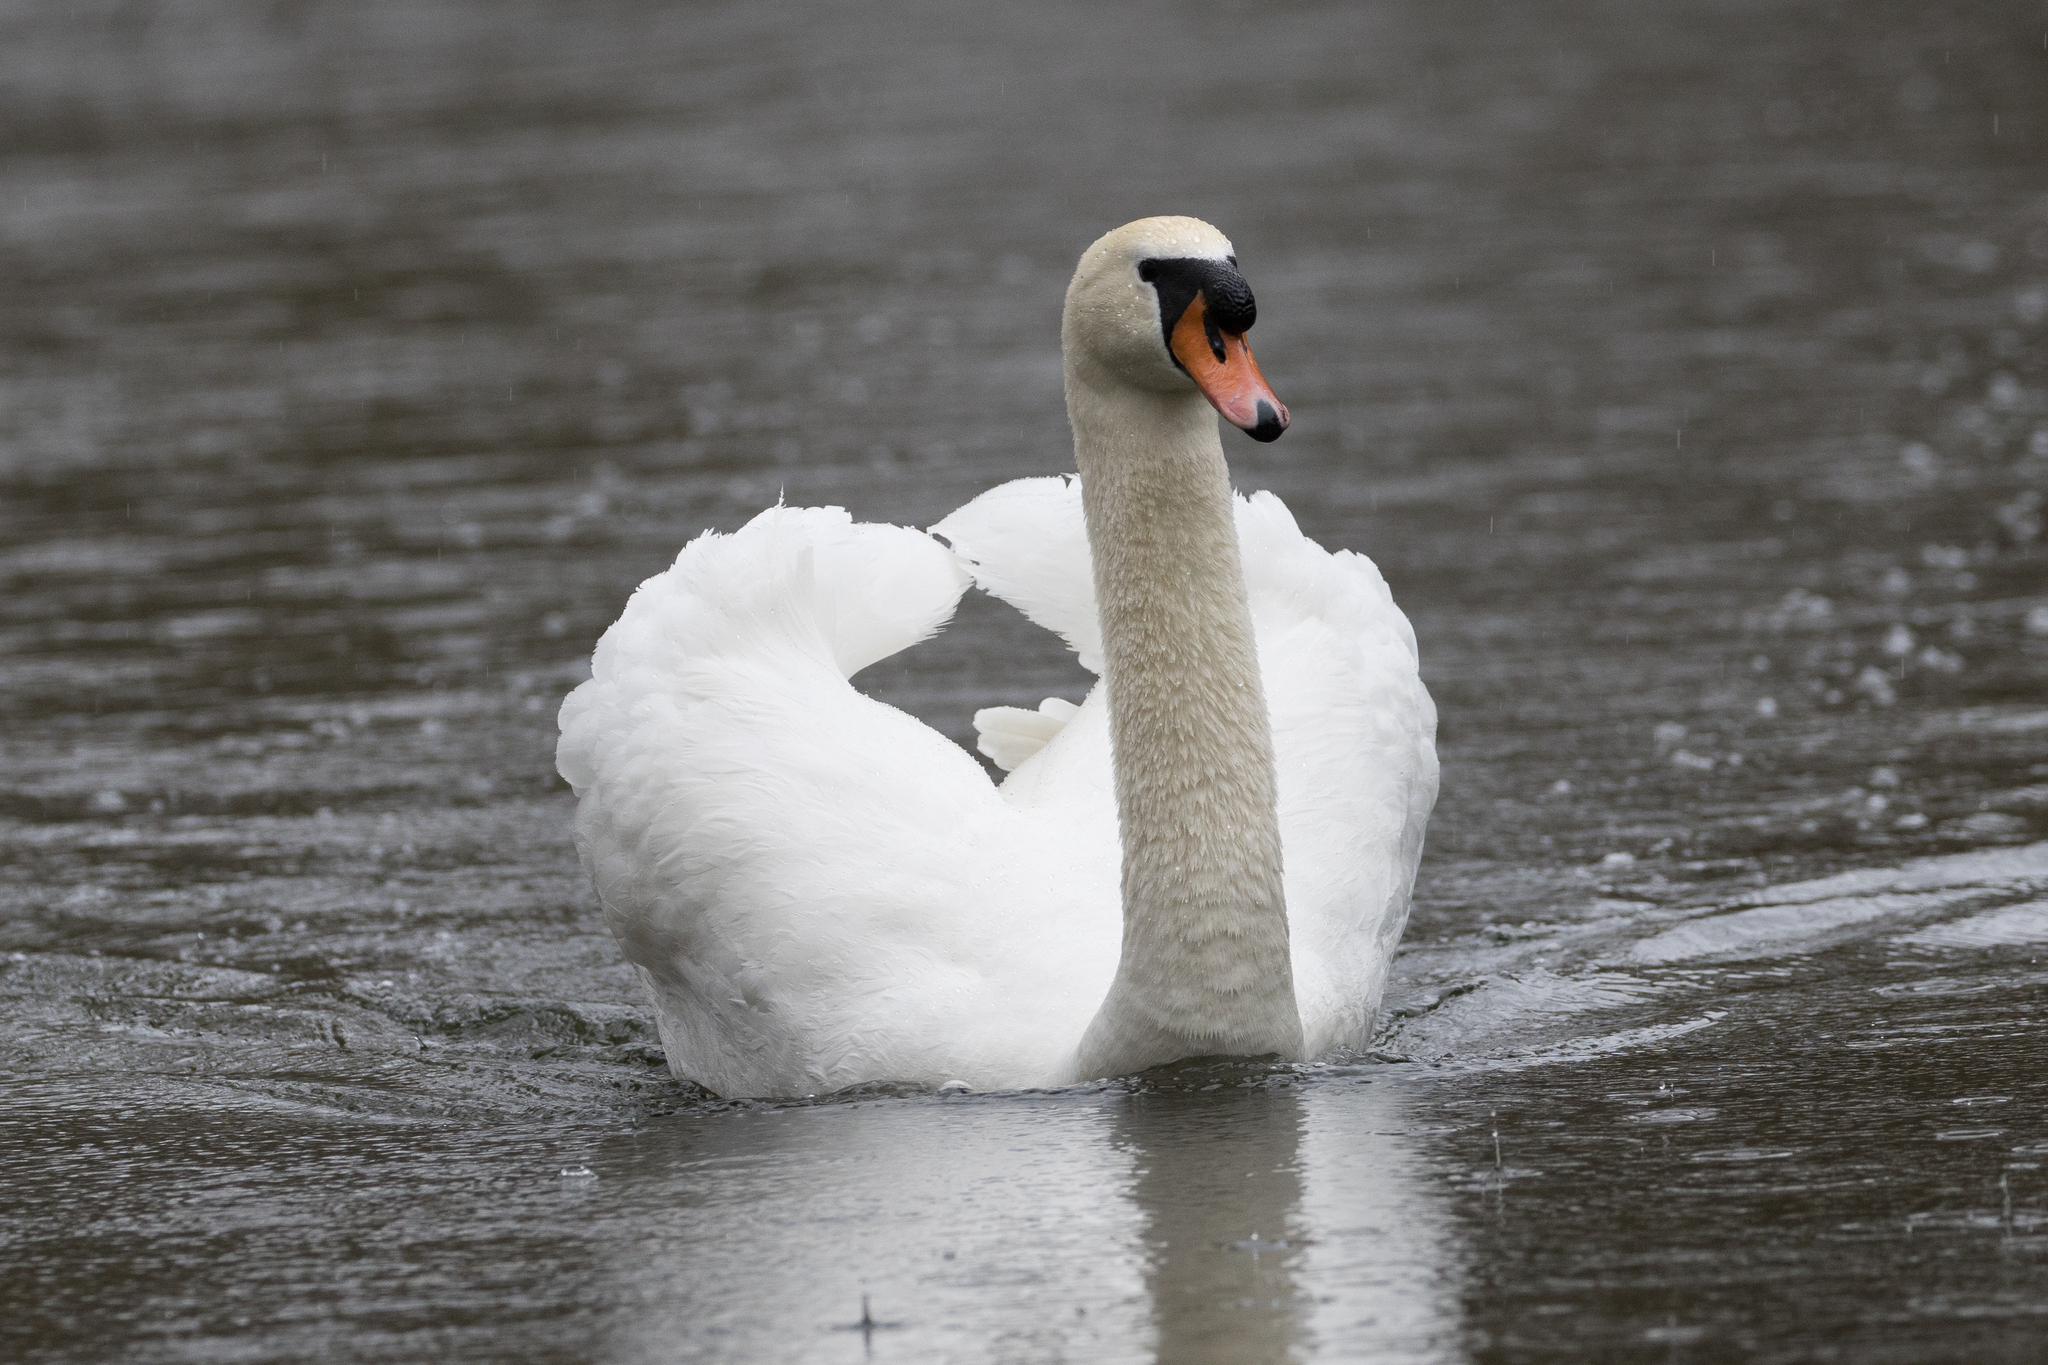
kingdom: Animalia
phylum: Chordata
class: Aves
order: Anseriformes
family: Anatidae
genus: Cygnus
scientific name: Cygnus olor
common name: Mute swan
